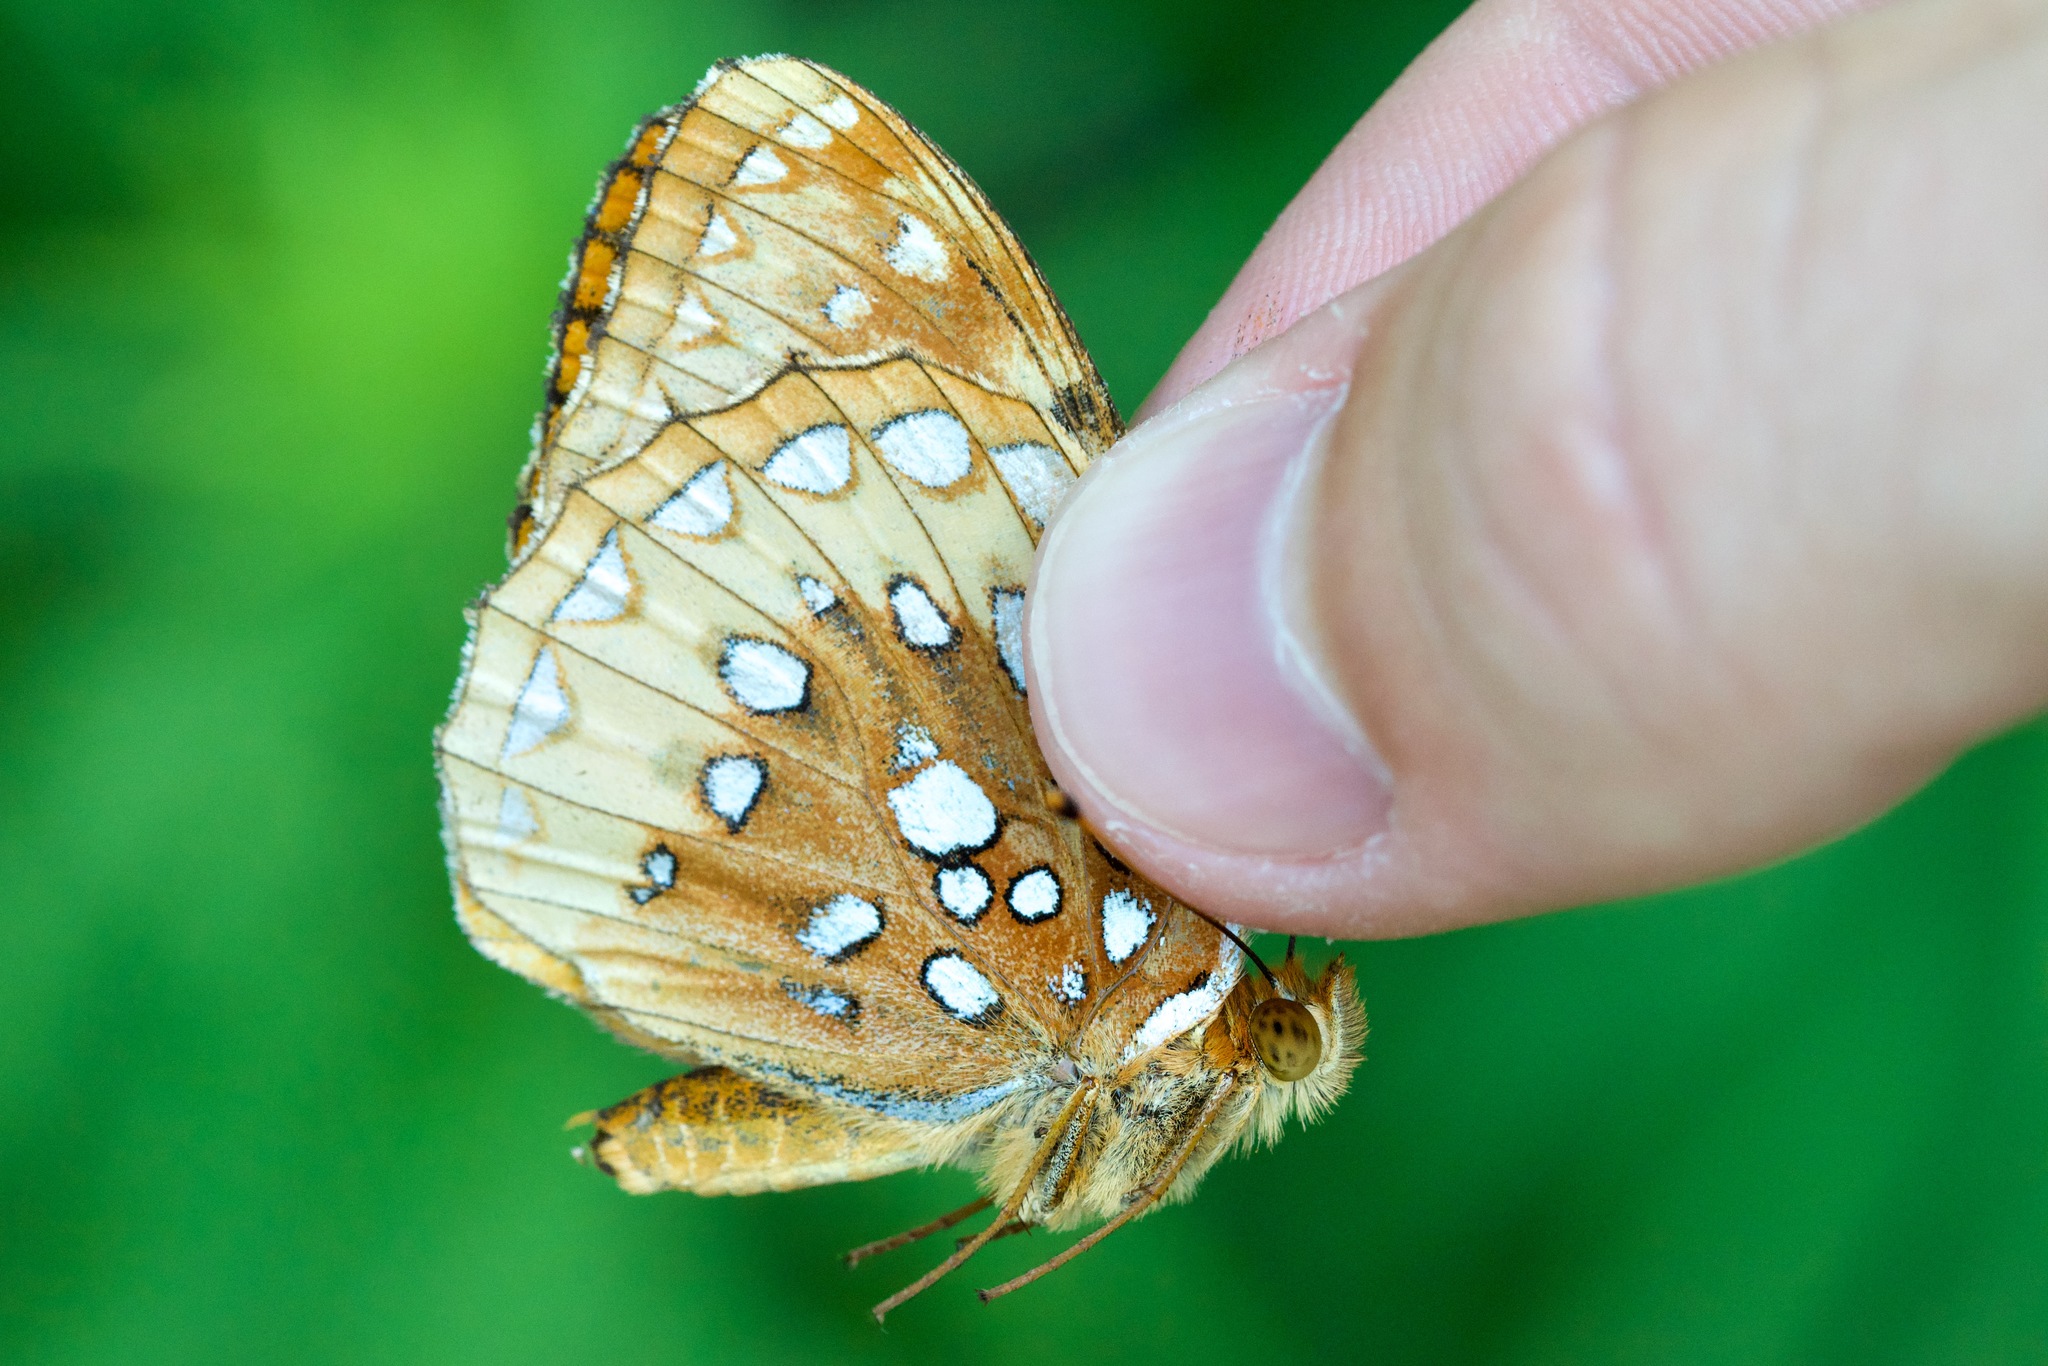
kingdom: Animalia
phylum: Arthropoda
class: Insecta
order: Lepidoptera
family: Nymphalidae
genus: Speyeria
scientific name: Speyeria cybele
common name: Great spangled fritillary
